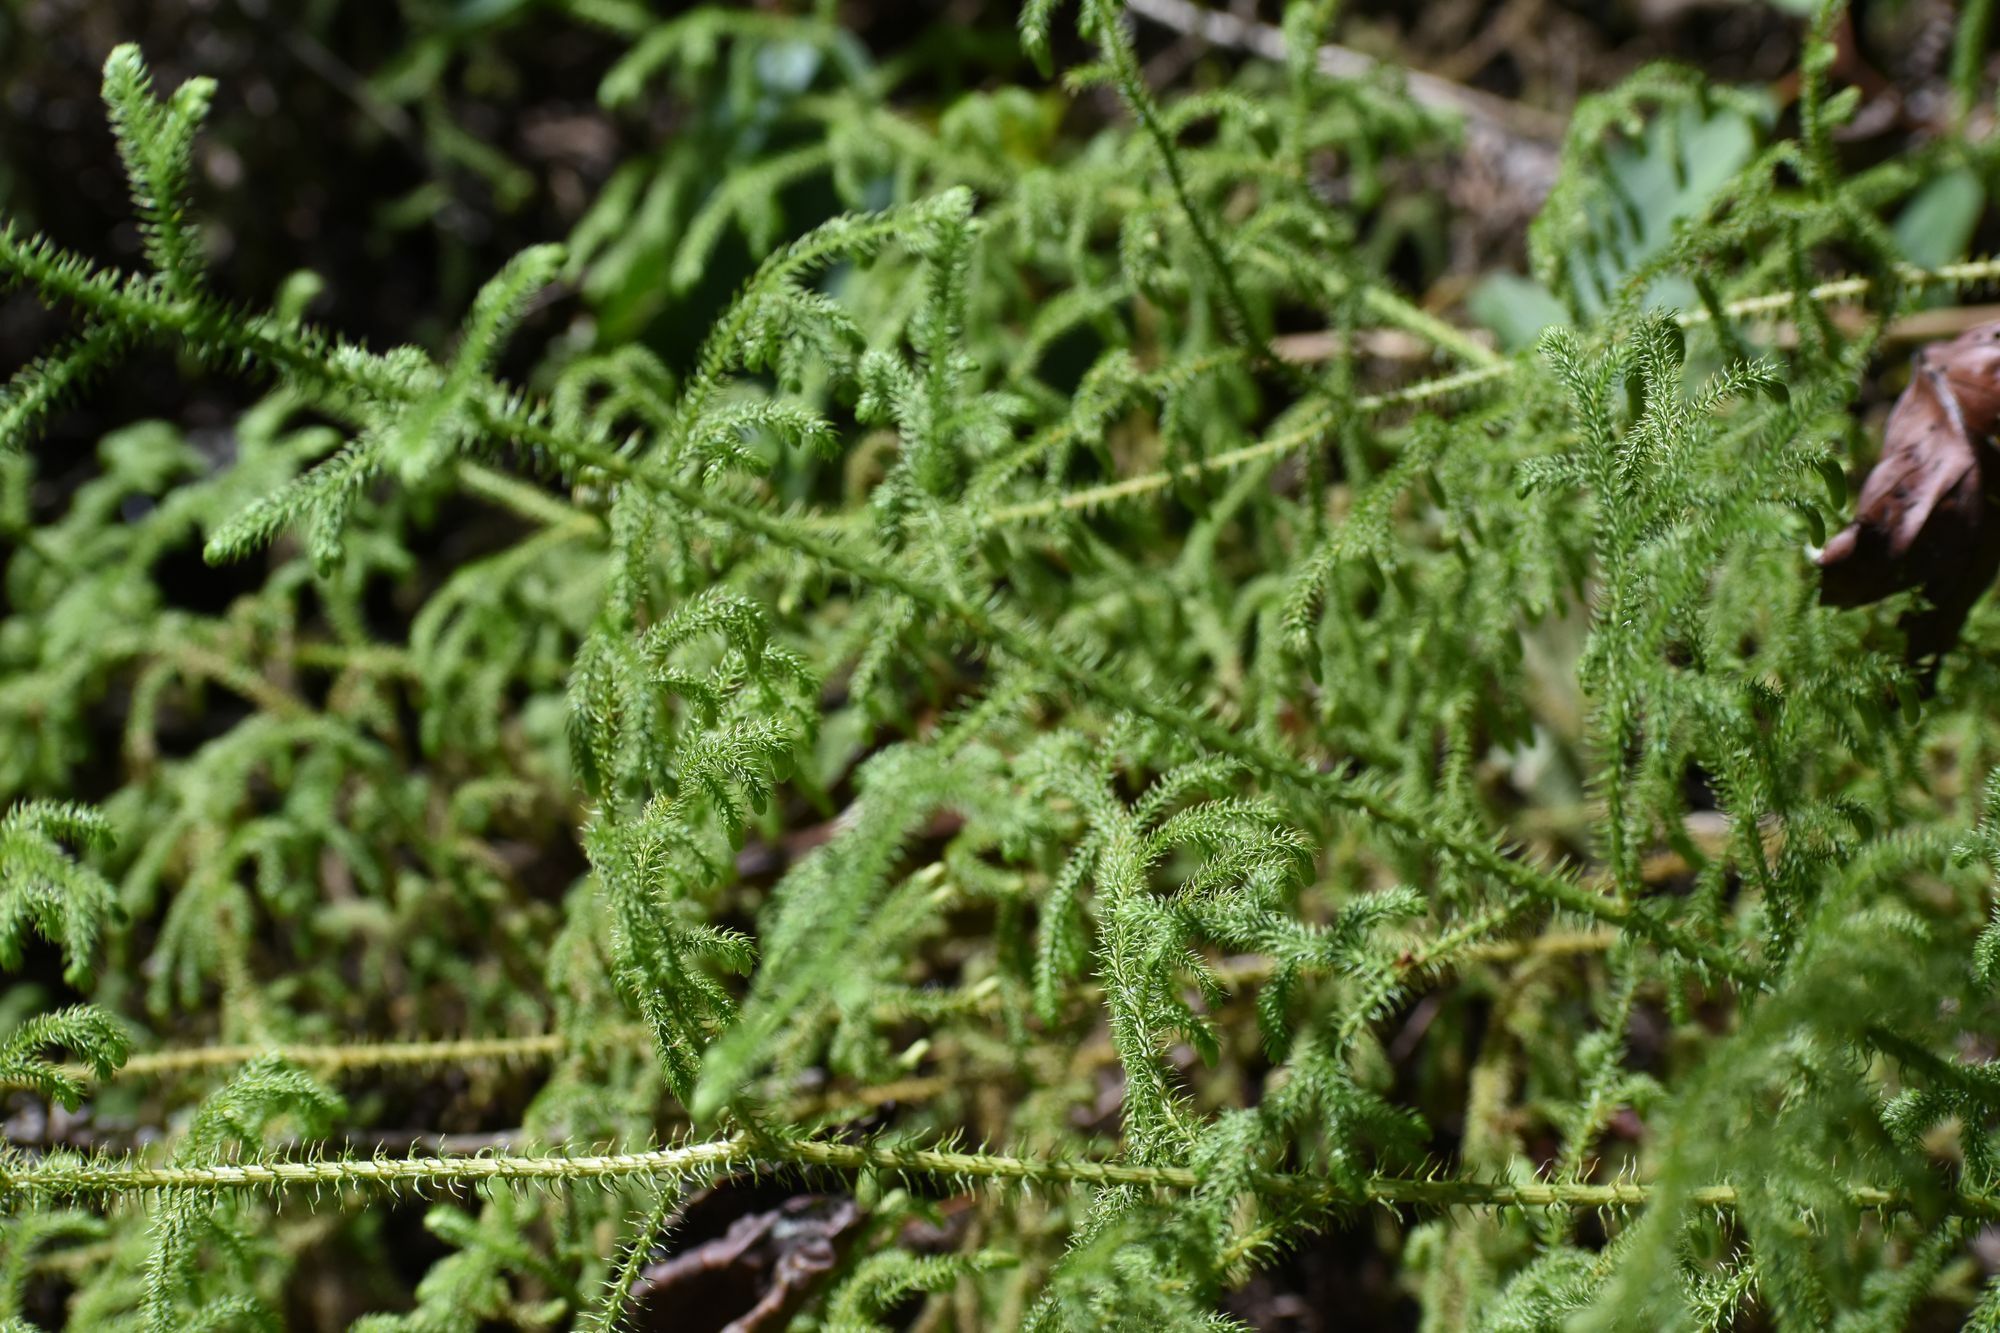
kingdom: Plantae
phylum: Tracheophyta
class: Lycopodiopsida
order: Lycopodiales
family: Lycopodiaceae
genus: Palhinhaea
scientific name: Palhinhaea cernua
